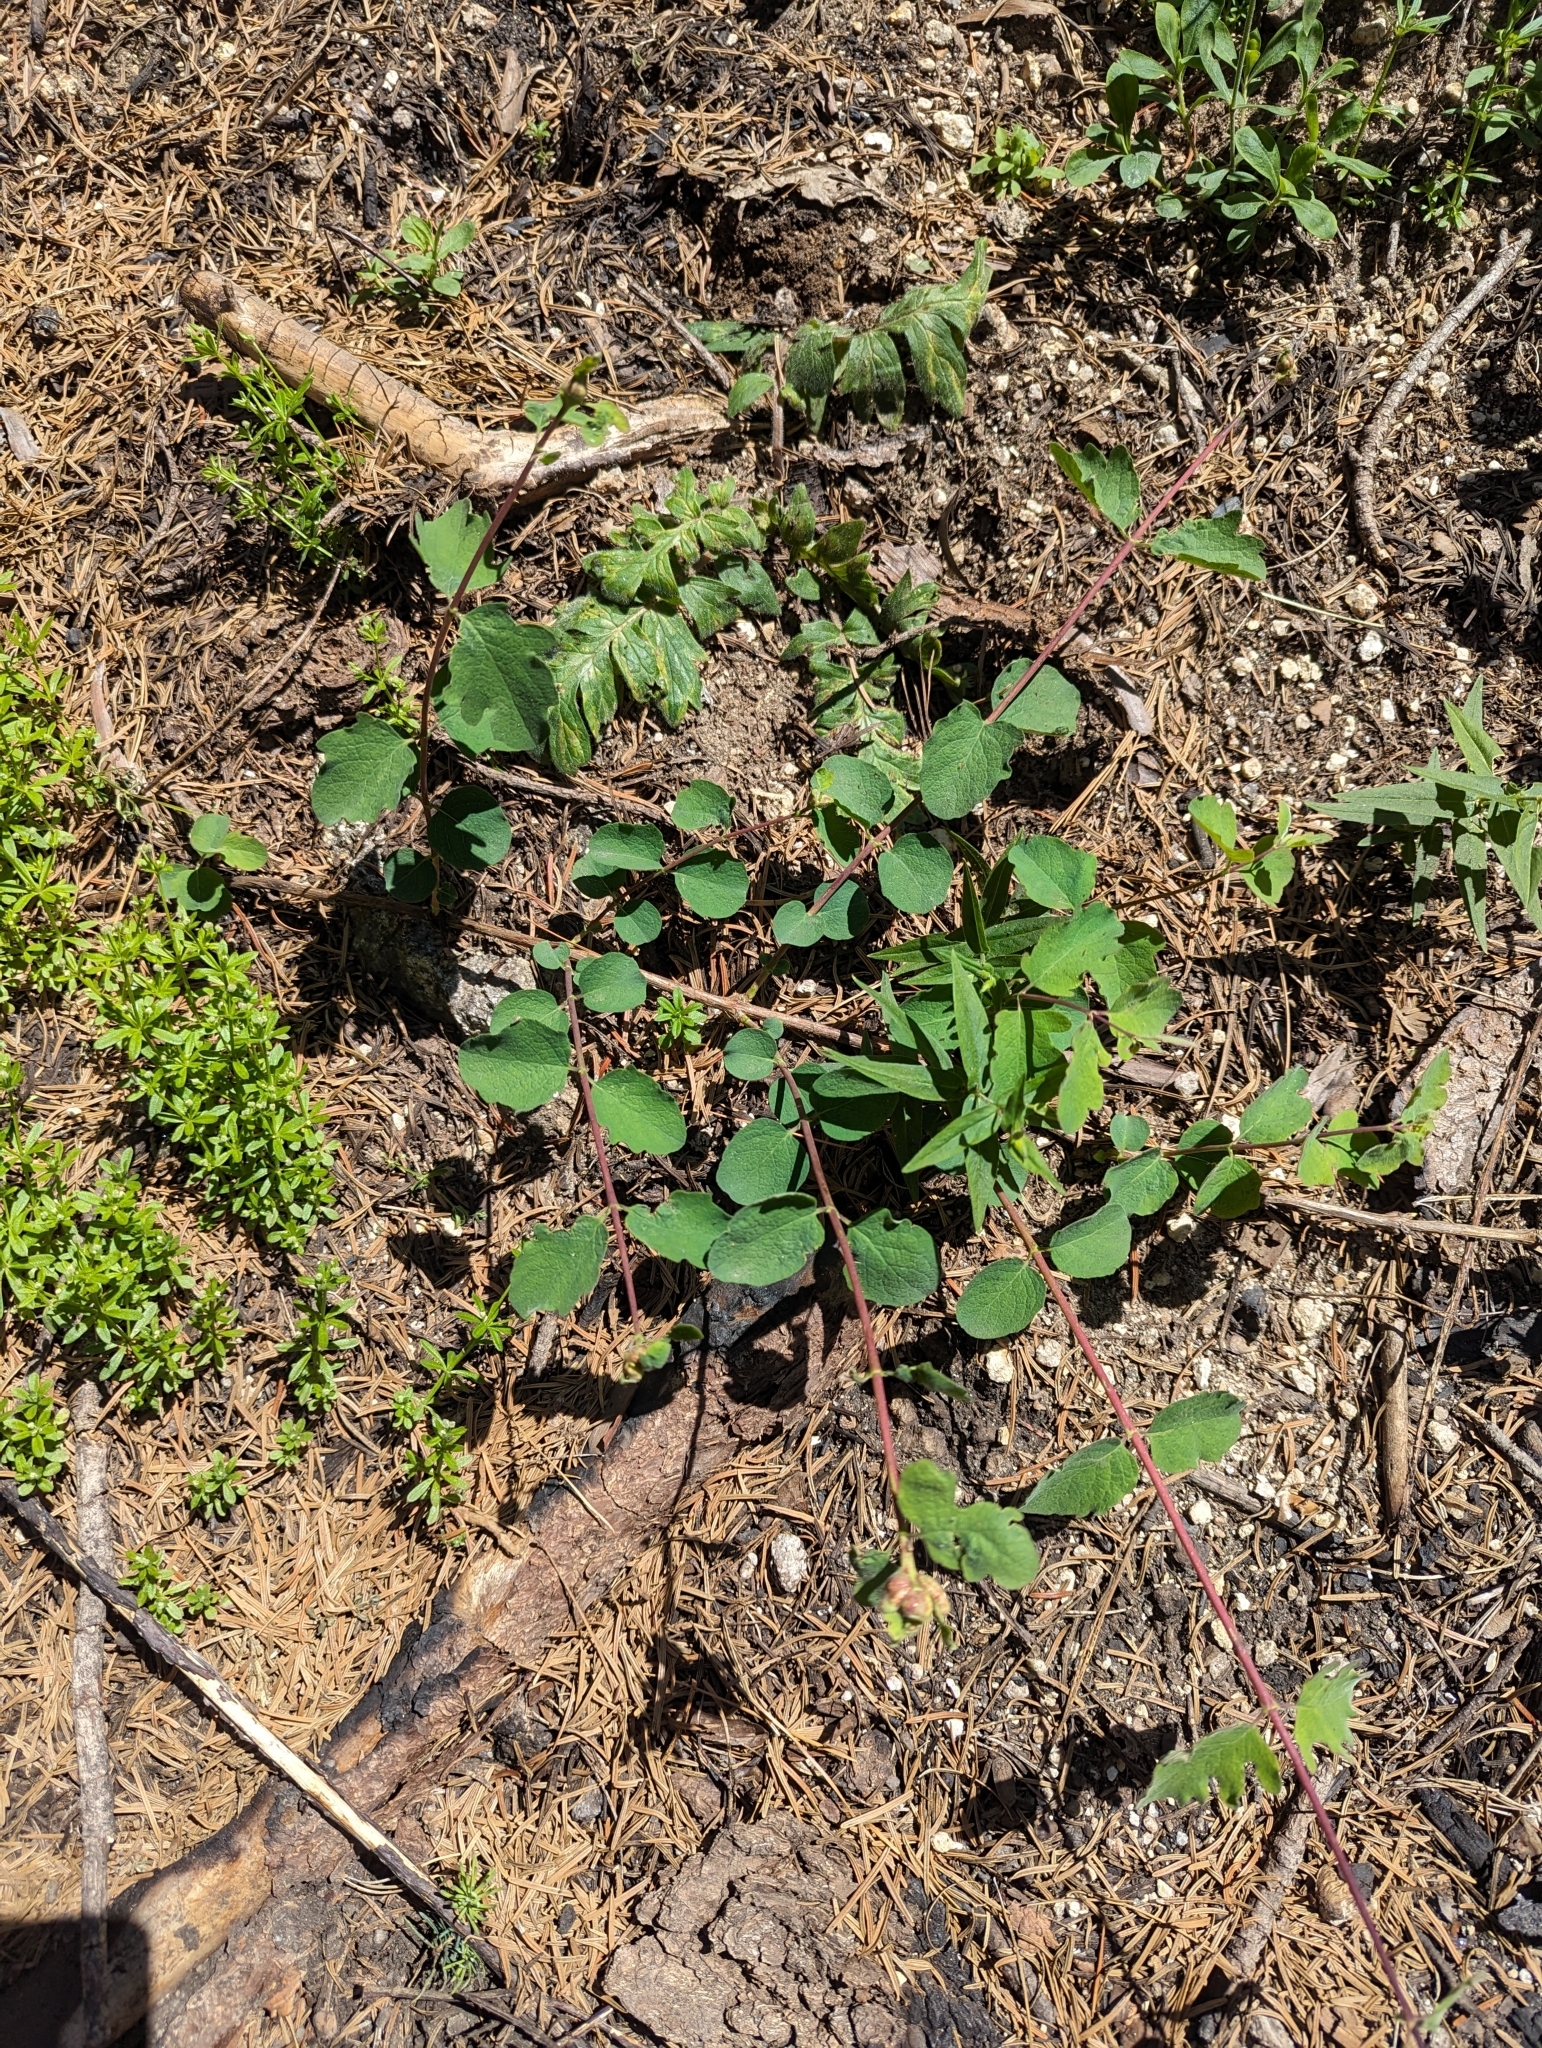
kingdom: Plantae
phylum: Tracheophyta
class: Magnoliopsida
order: Dipsacales
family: Caprifoliaceae
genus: Symphoricarpos
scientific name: Symphoricarpos mollis
